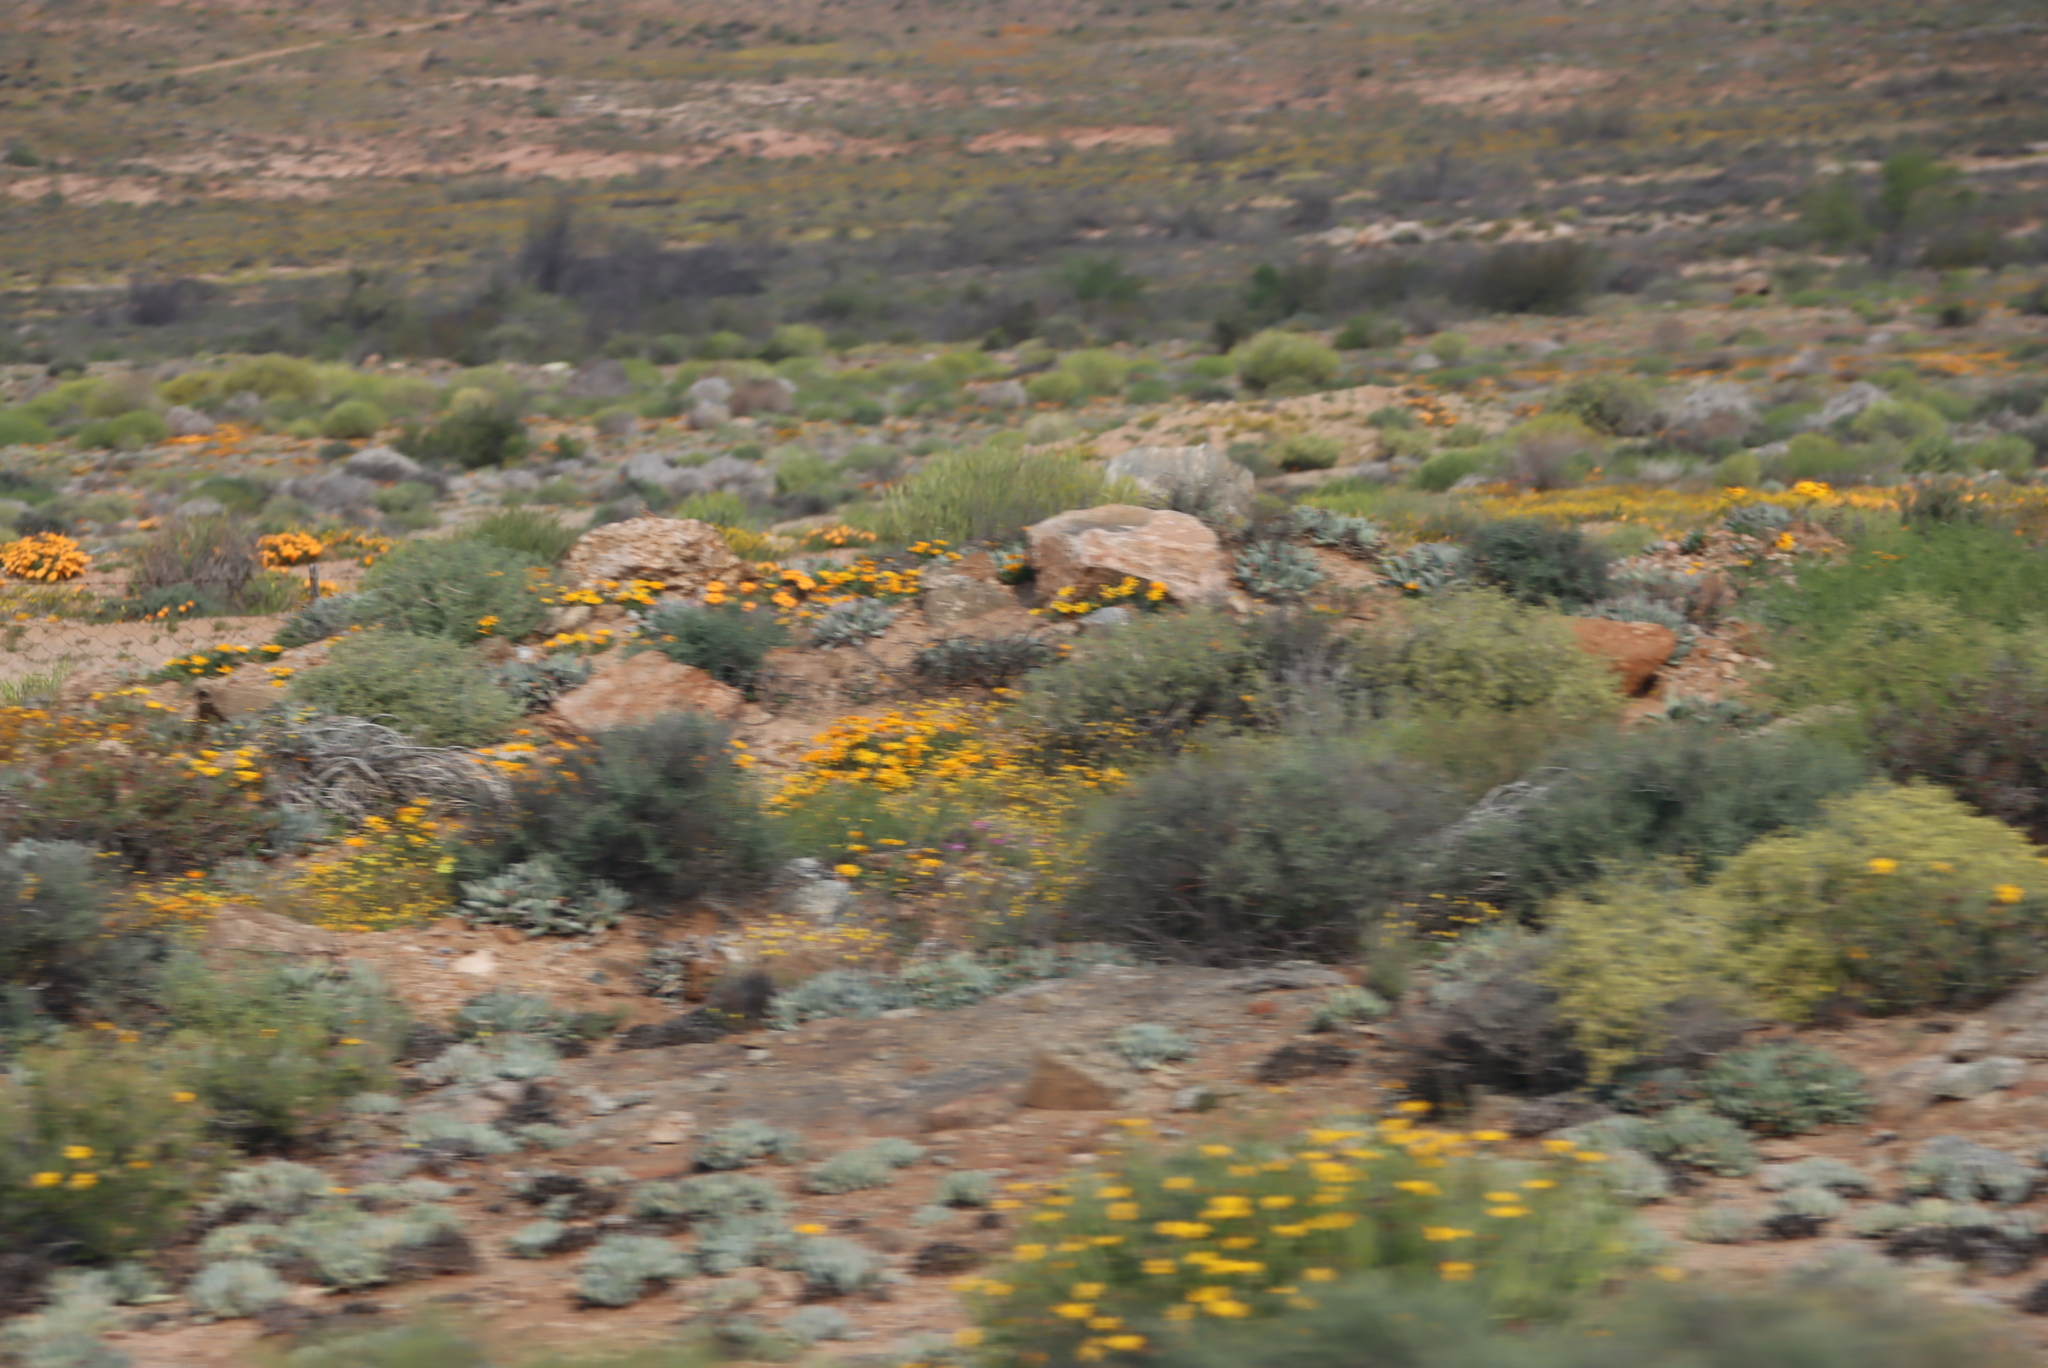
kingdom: Plantae
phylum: Tracheophyta
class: Magnoliopsida
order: Asterales
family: Asteraceae
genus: Dimorphotheca
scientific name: Dimorphotheca sinuata
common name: Glandular cape marigold
